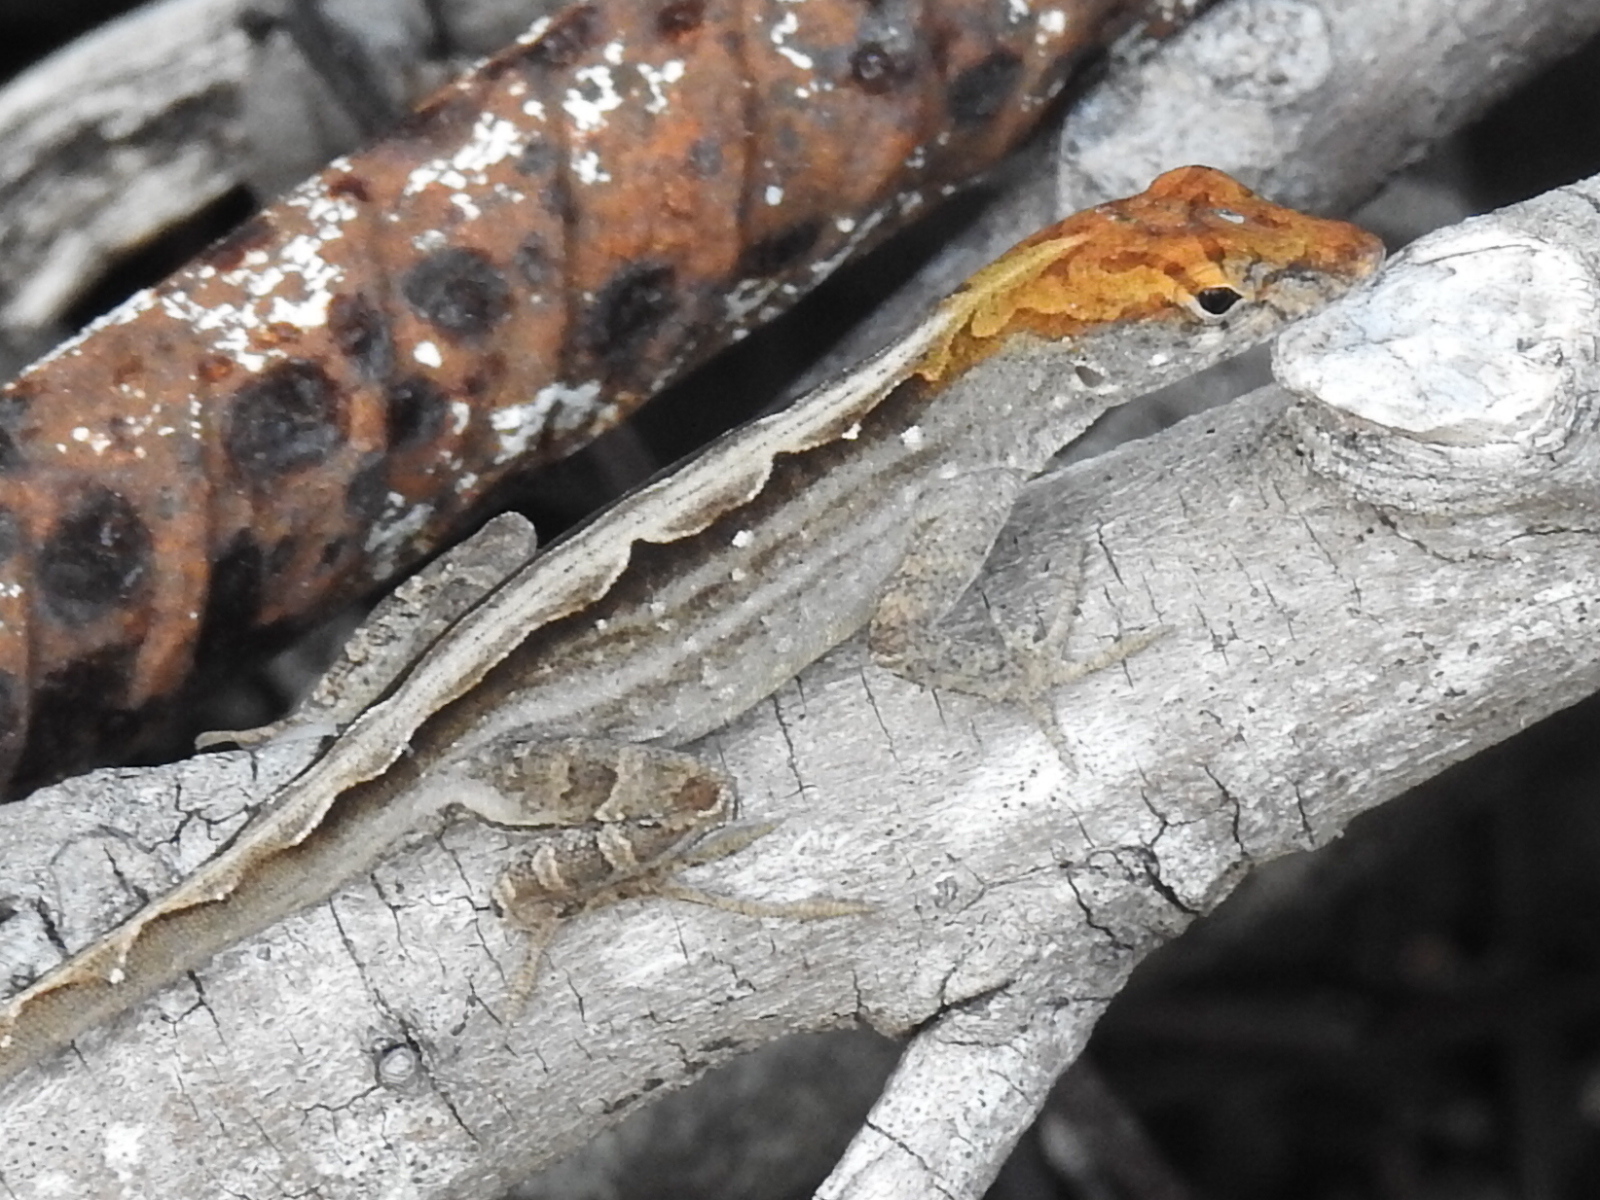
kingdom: Animalia
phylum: Chordata
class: Squamata
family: Dactyloidae
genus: Anolis
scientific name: Anolis sagrei
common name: Brown anole
